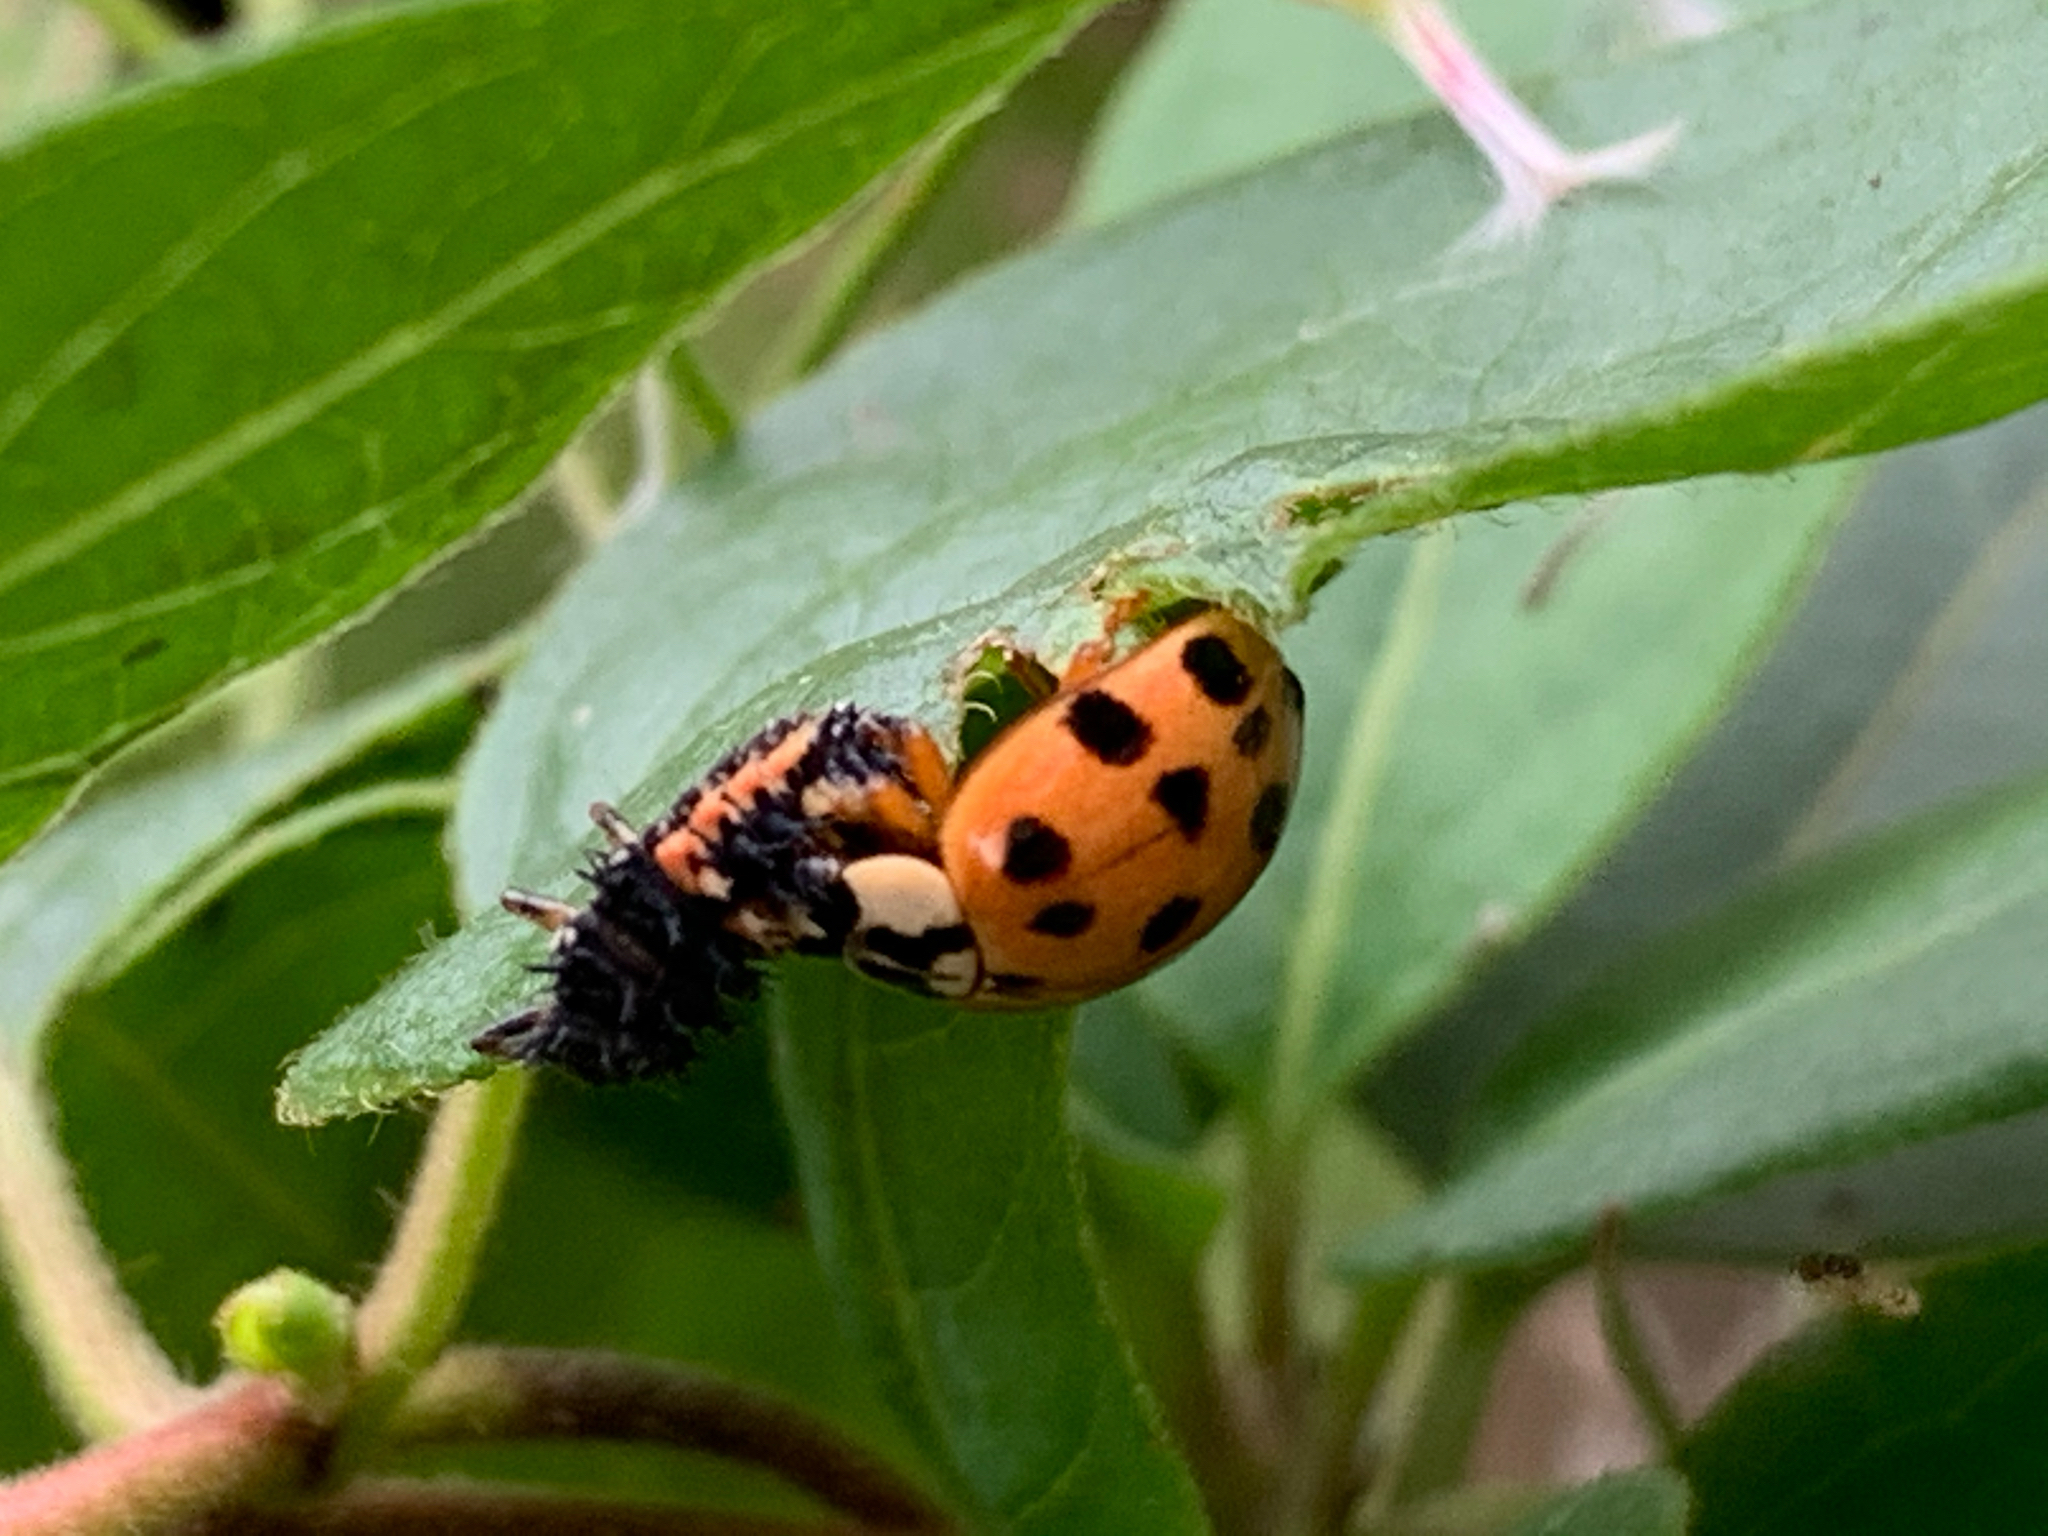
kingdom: Animalia
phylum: Arthropoda
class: Insecta
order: Coleoptera
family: Coccinellidae
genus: Harmonia
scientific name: Harmonia axyridis
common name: Harlequin ladybird
